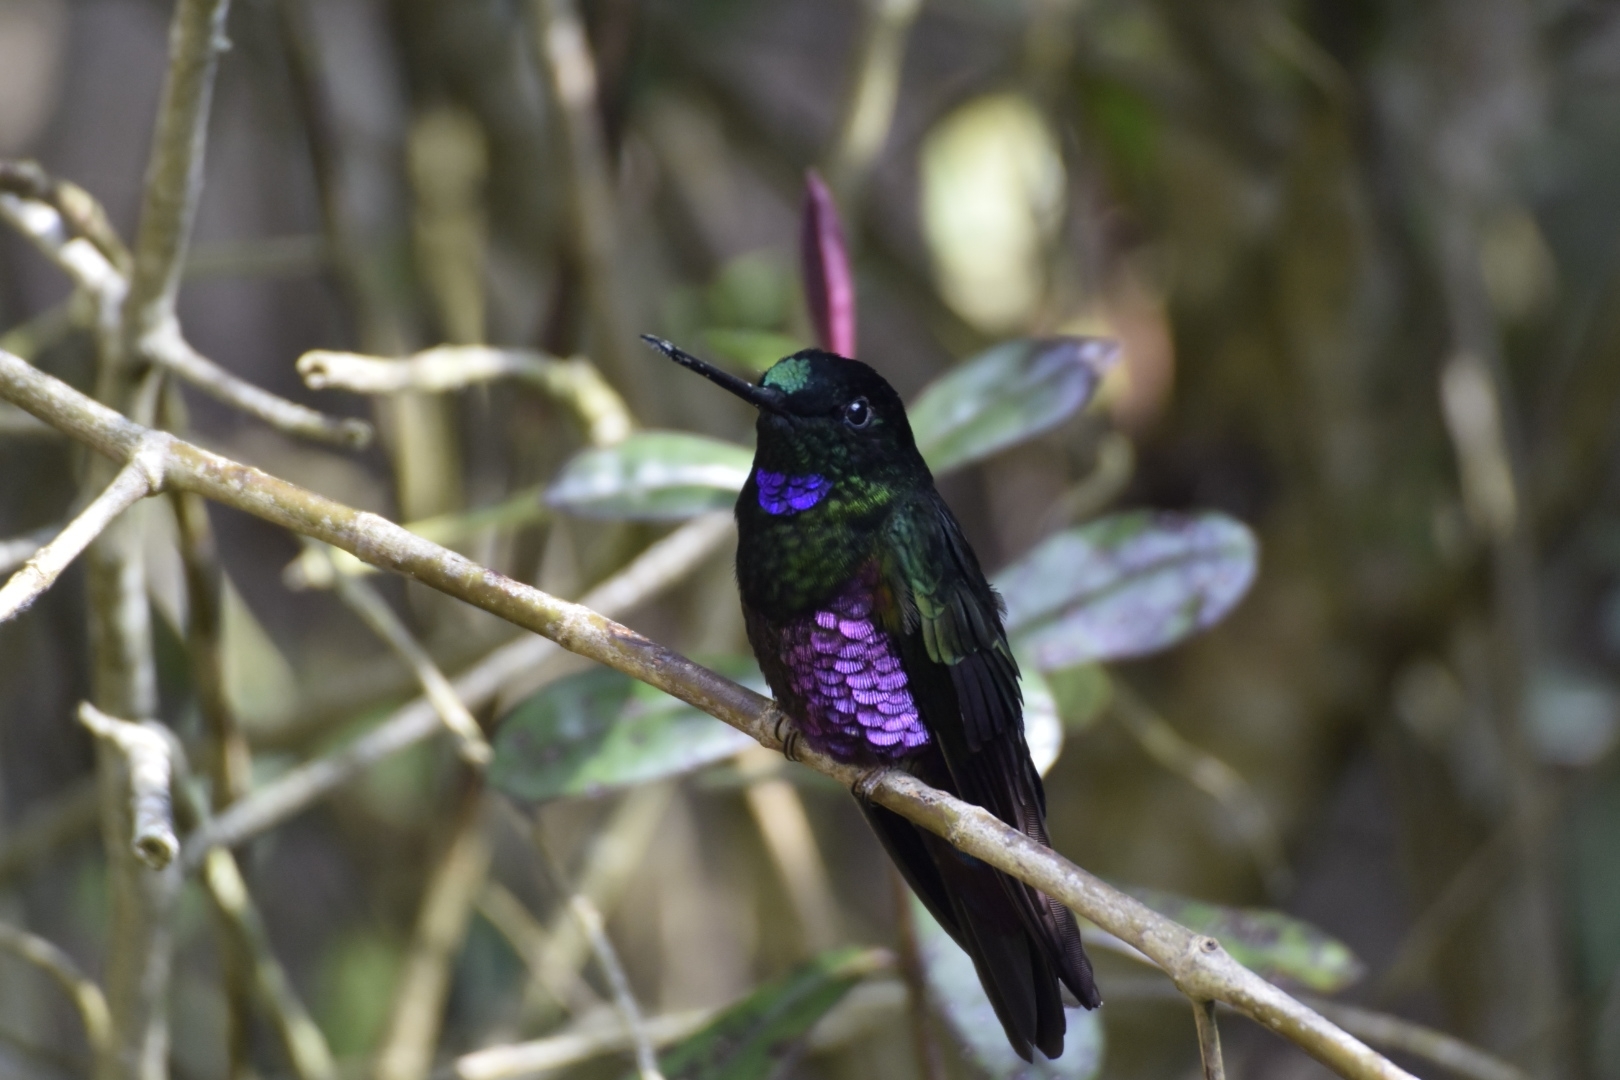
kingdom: Animalia
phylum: Chordata
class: Aves
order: Apodiformes
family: Trochilidae
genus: Coeligena
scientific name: Coeligena helianthea
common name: Blue-throated starfrontlet
